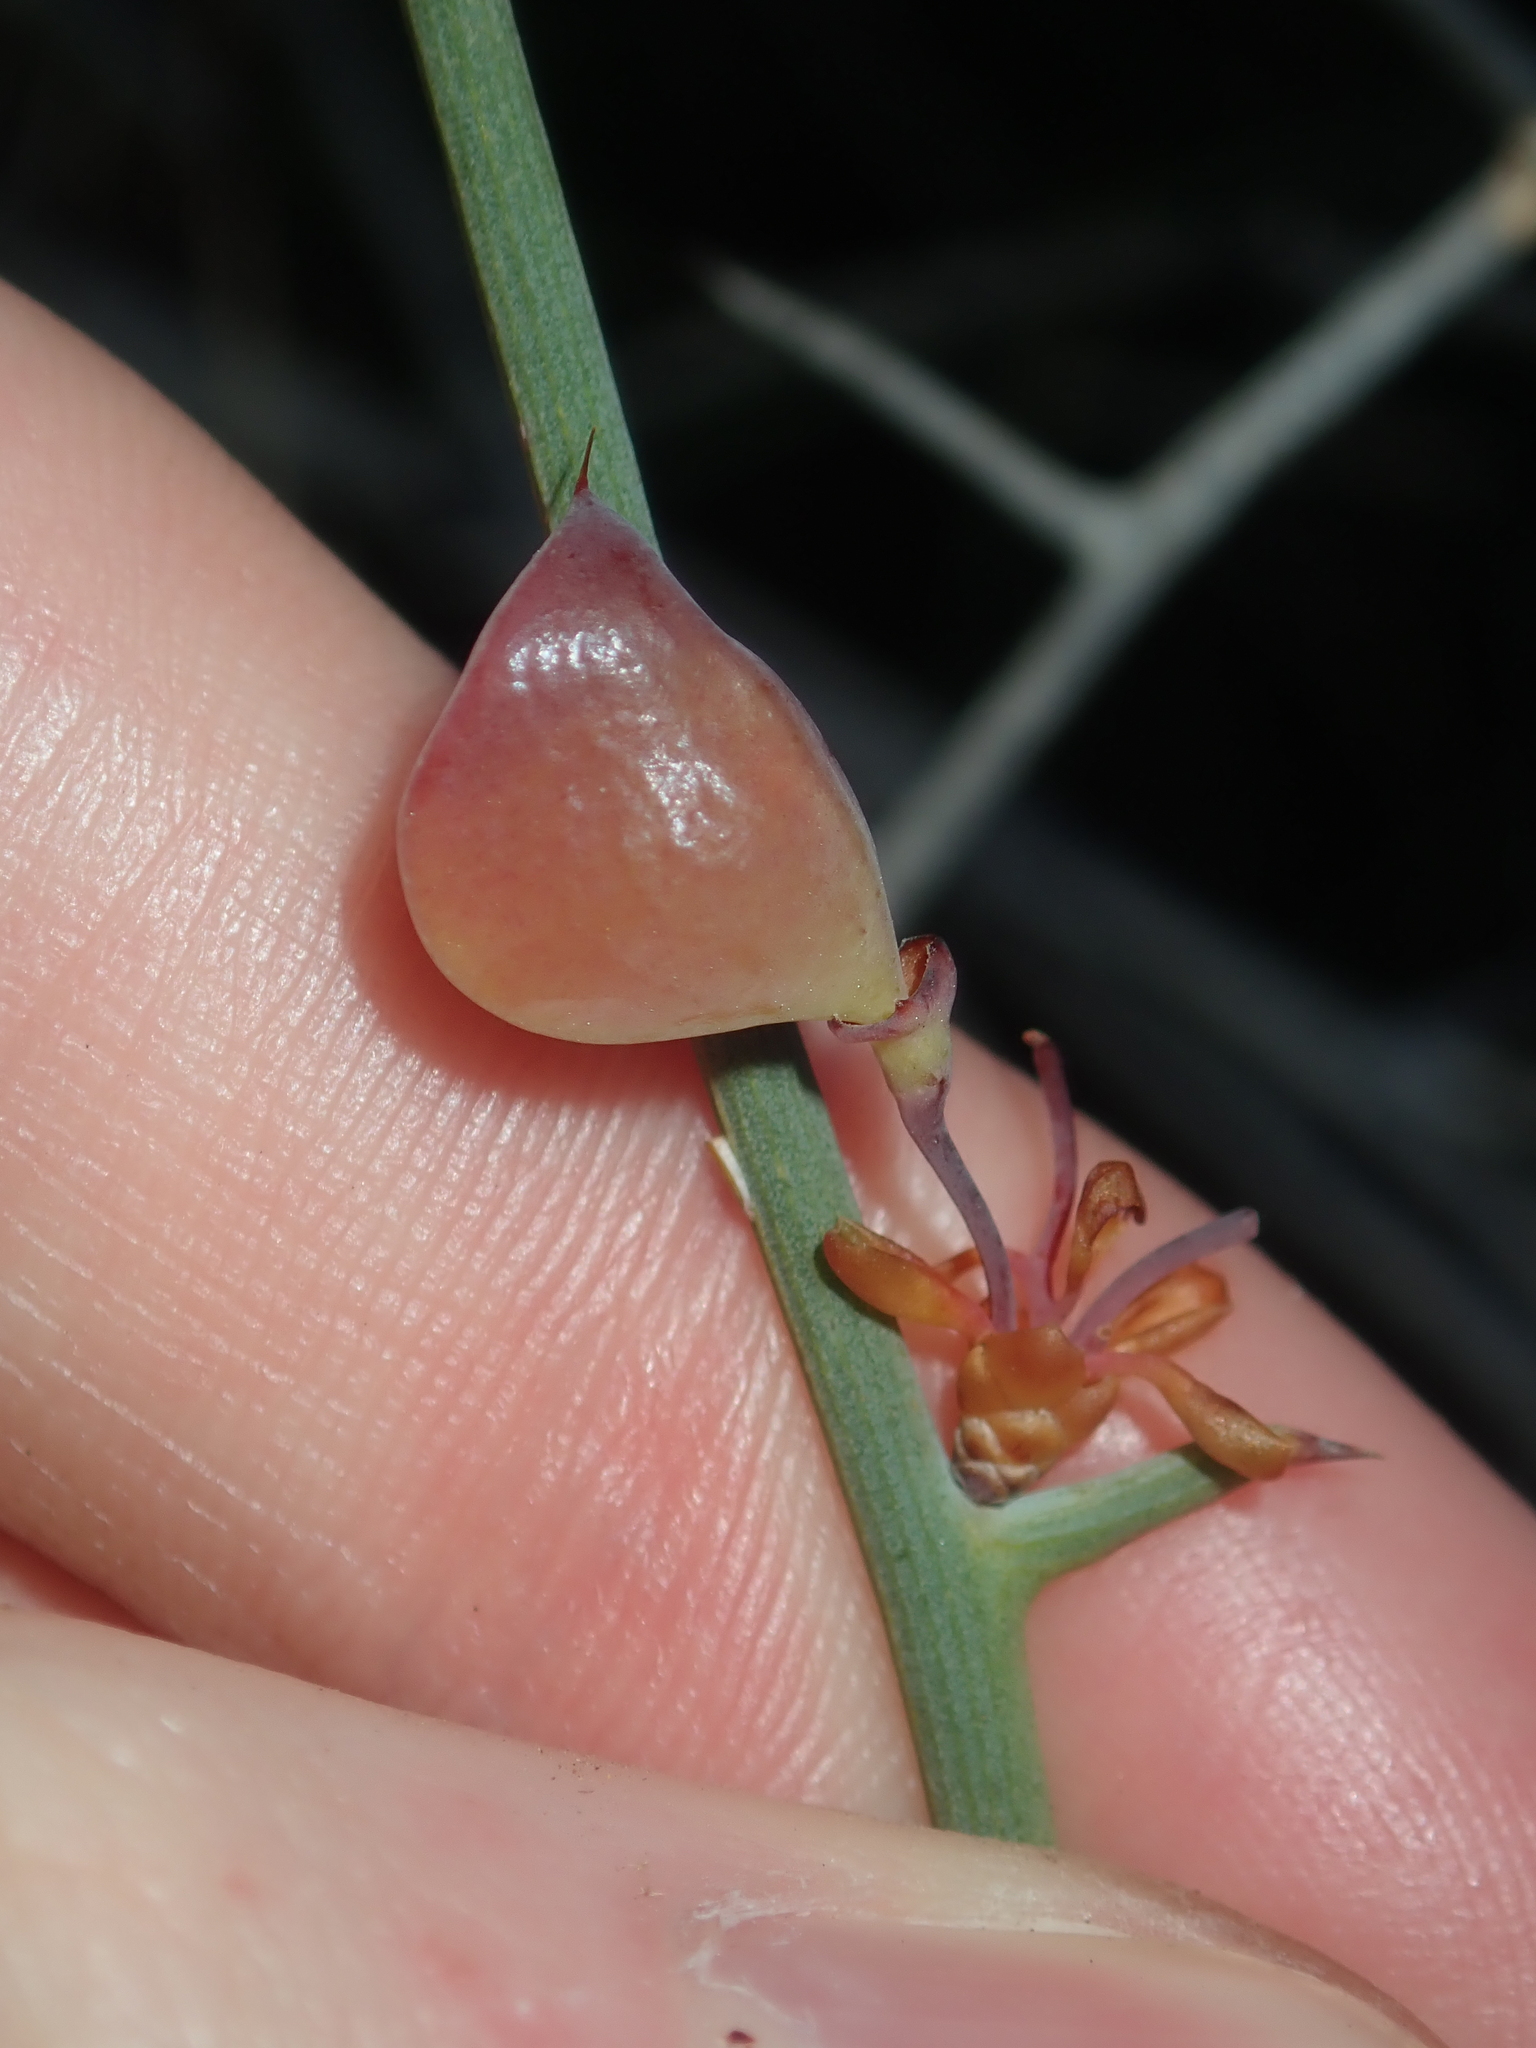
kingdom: Plantae
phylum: Tracheophyta
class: Magnoliopsida
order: Fabales
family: Fabaceae
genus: Daviesia
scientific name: Daviesia hakeoides
